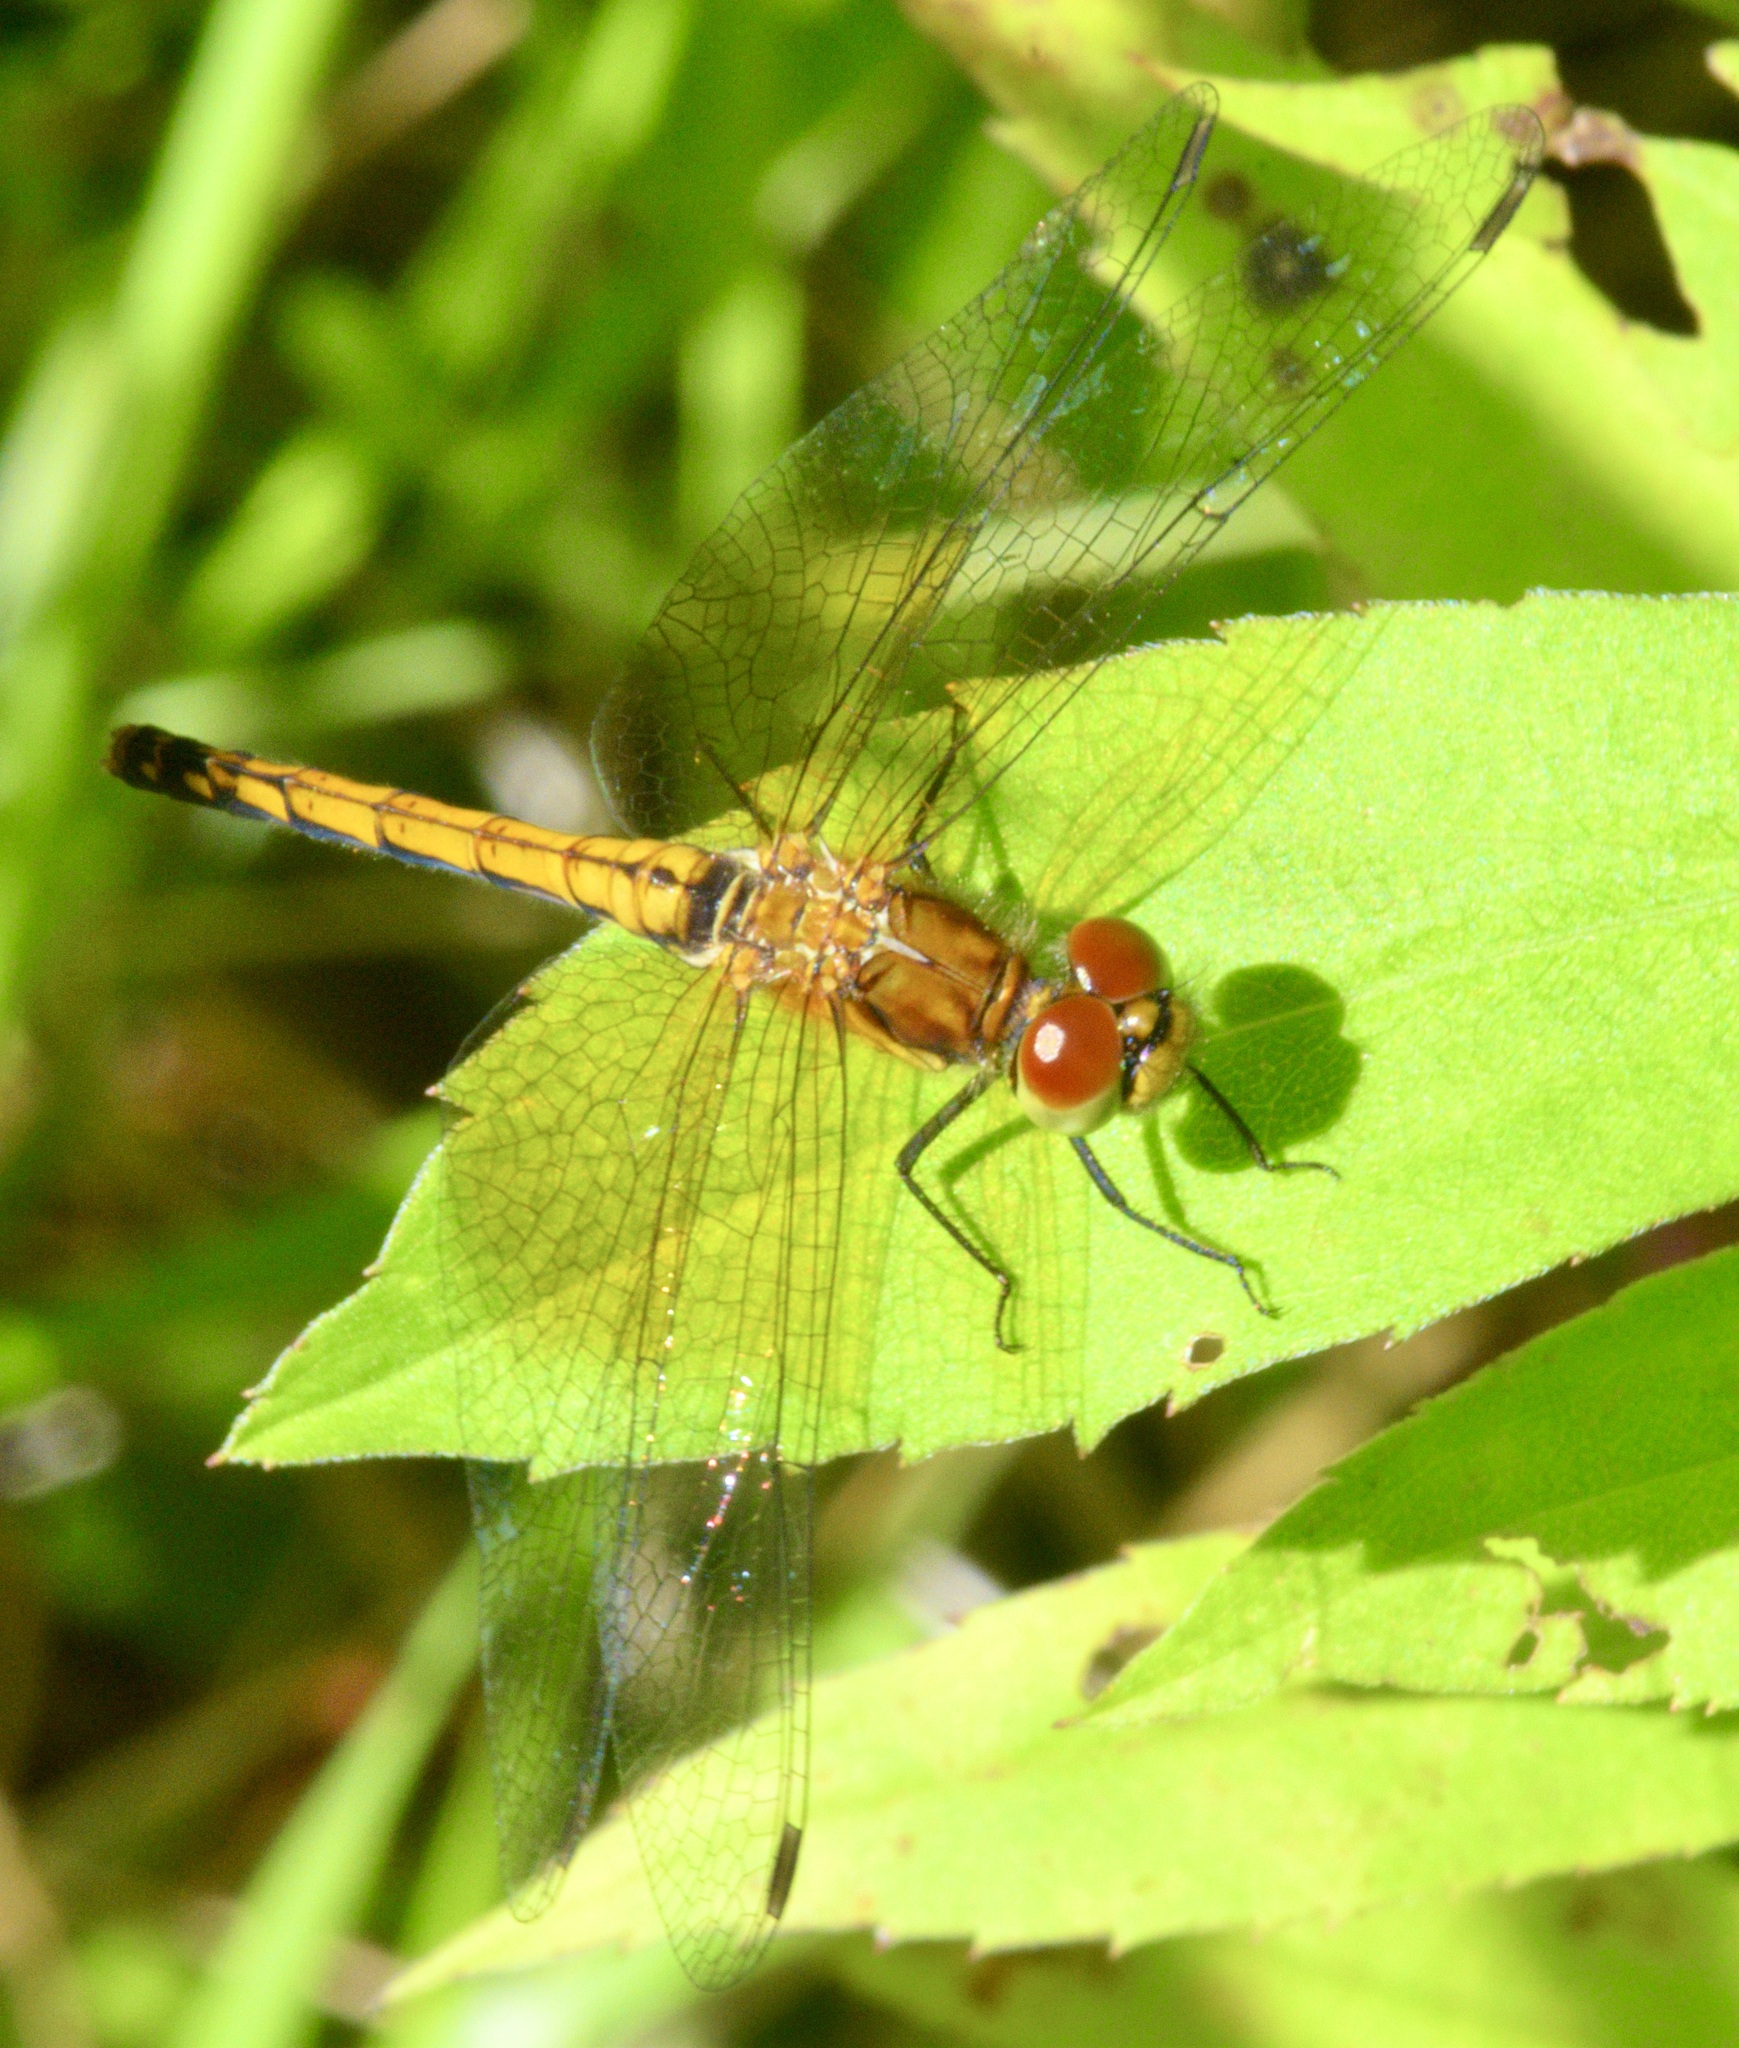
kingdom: Animalia
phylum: Arthropoda
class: Insecta
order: Odonata
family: Libellulidae
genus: Sympetrum
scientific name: Sympetrum semicinctum
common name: Band-winged meadowhawk
